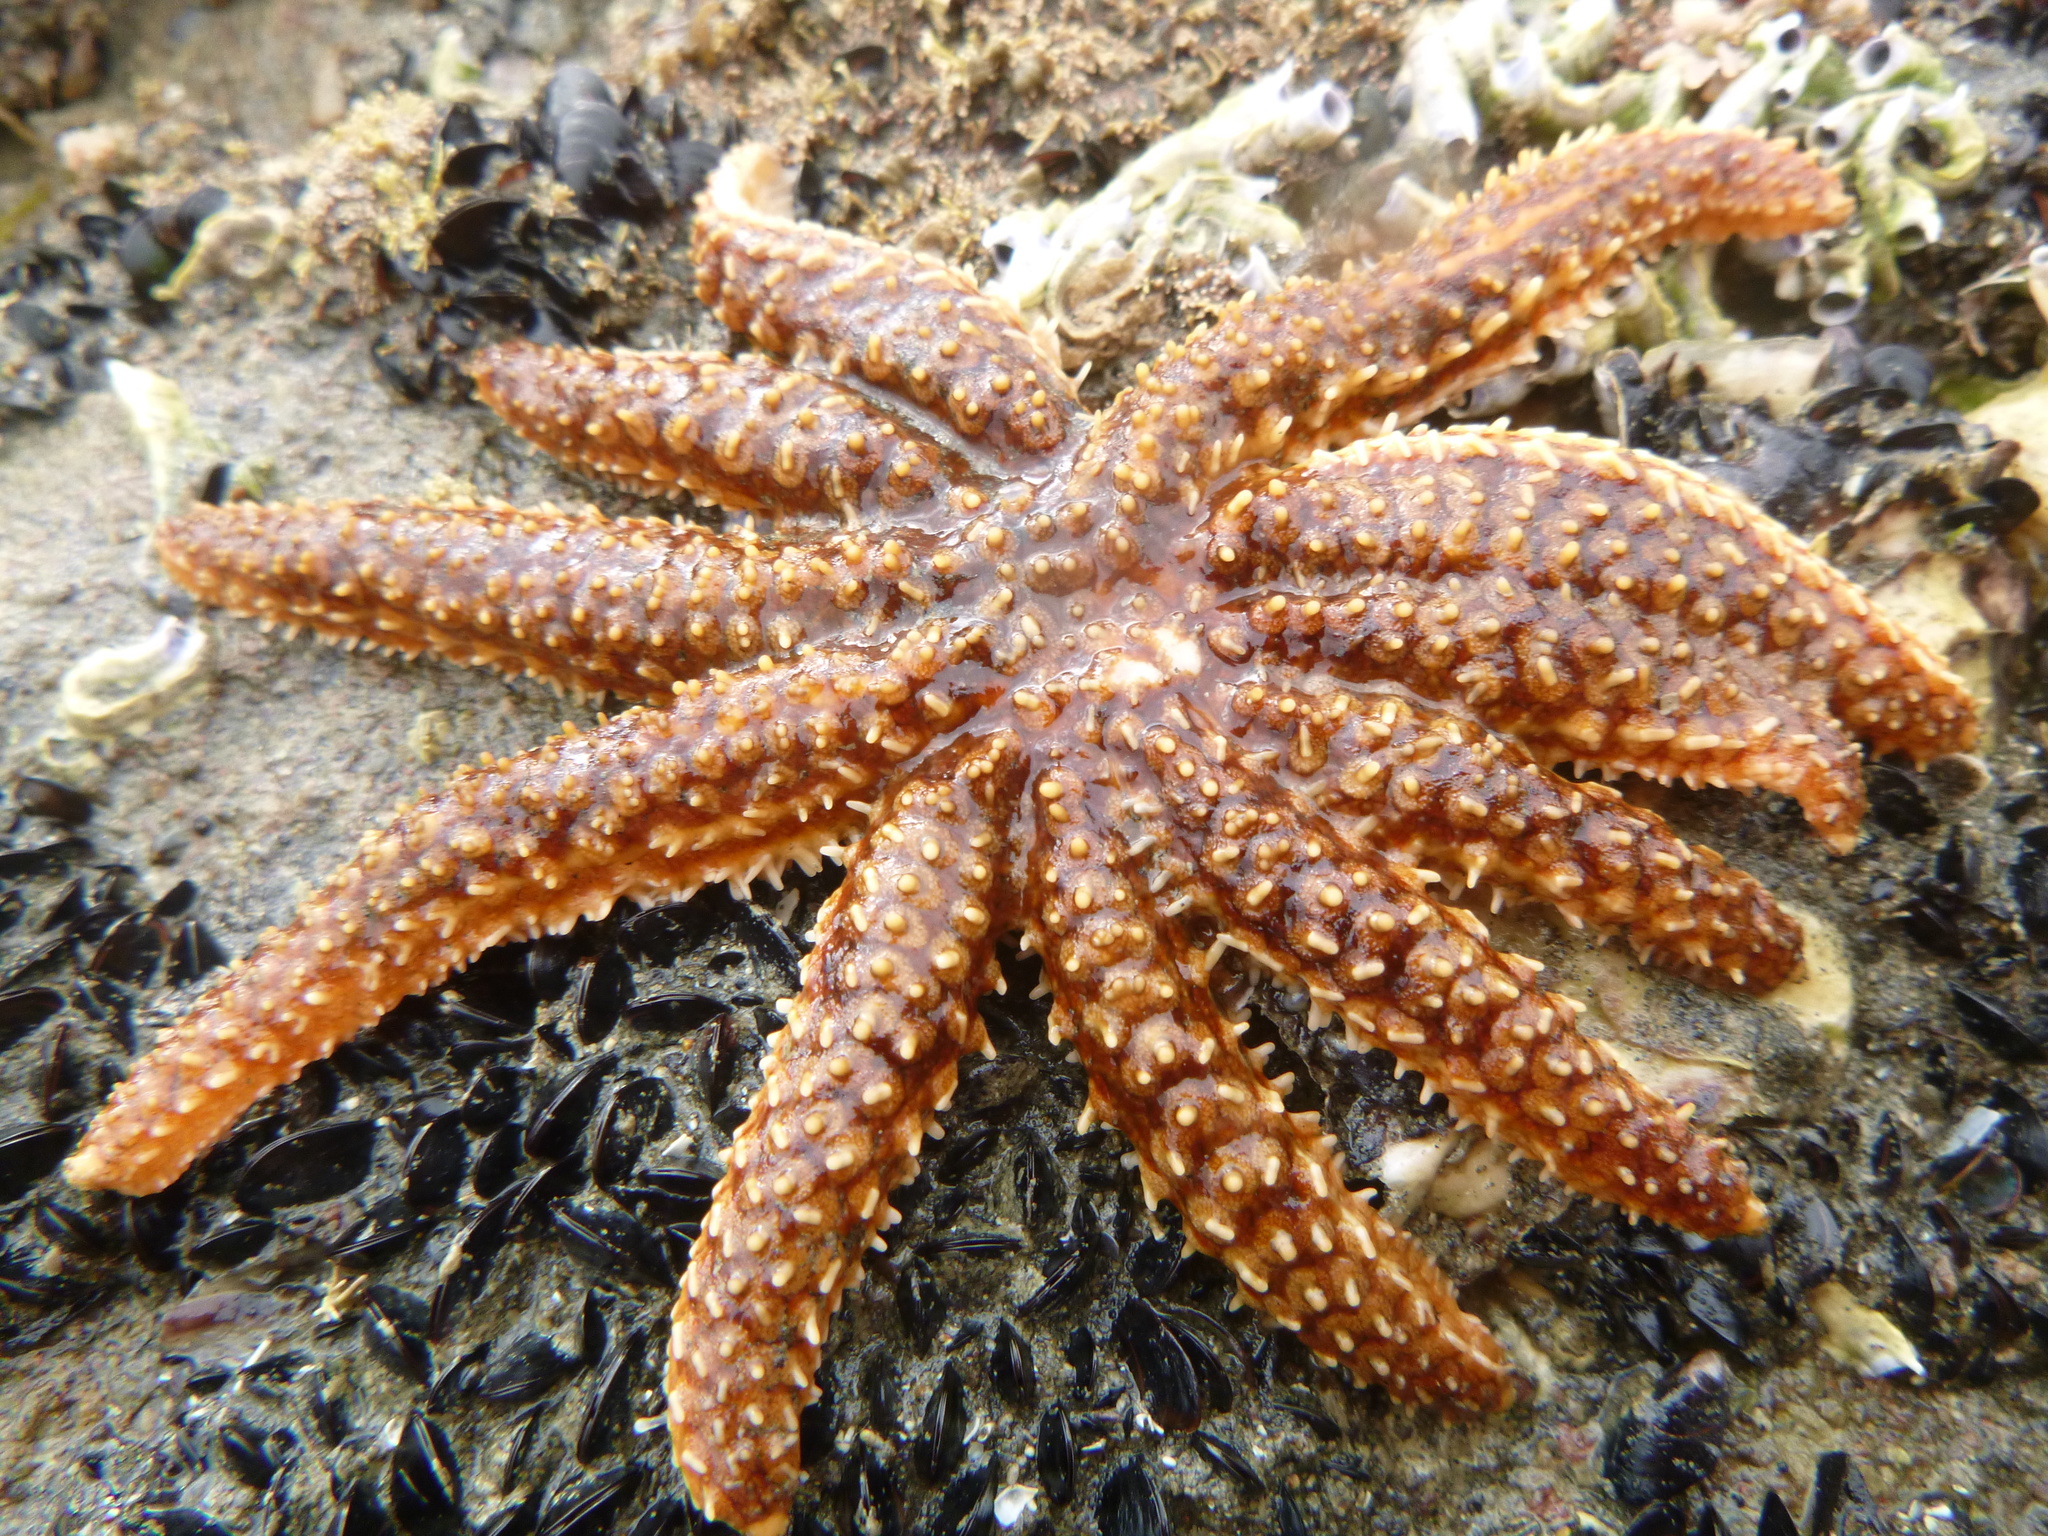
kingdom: Animalia
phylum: Echinodermata
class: Asteroidea
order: Forcipulatida
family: Asteriidae
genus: Coscinasterias
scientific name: Coscinasterias muricata
